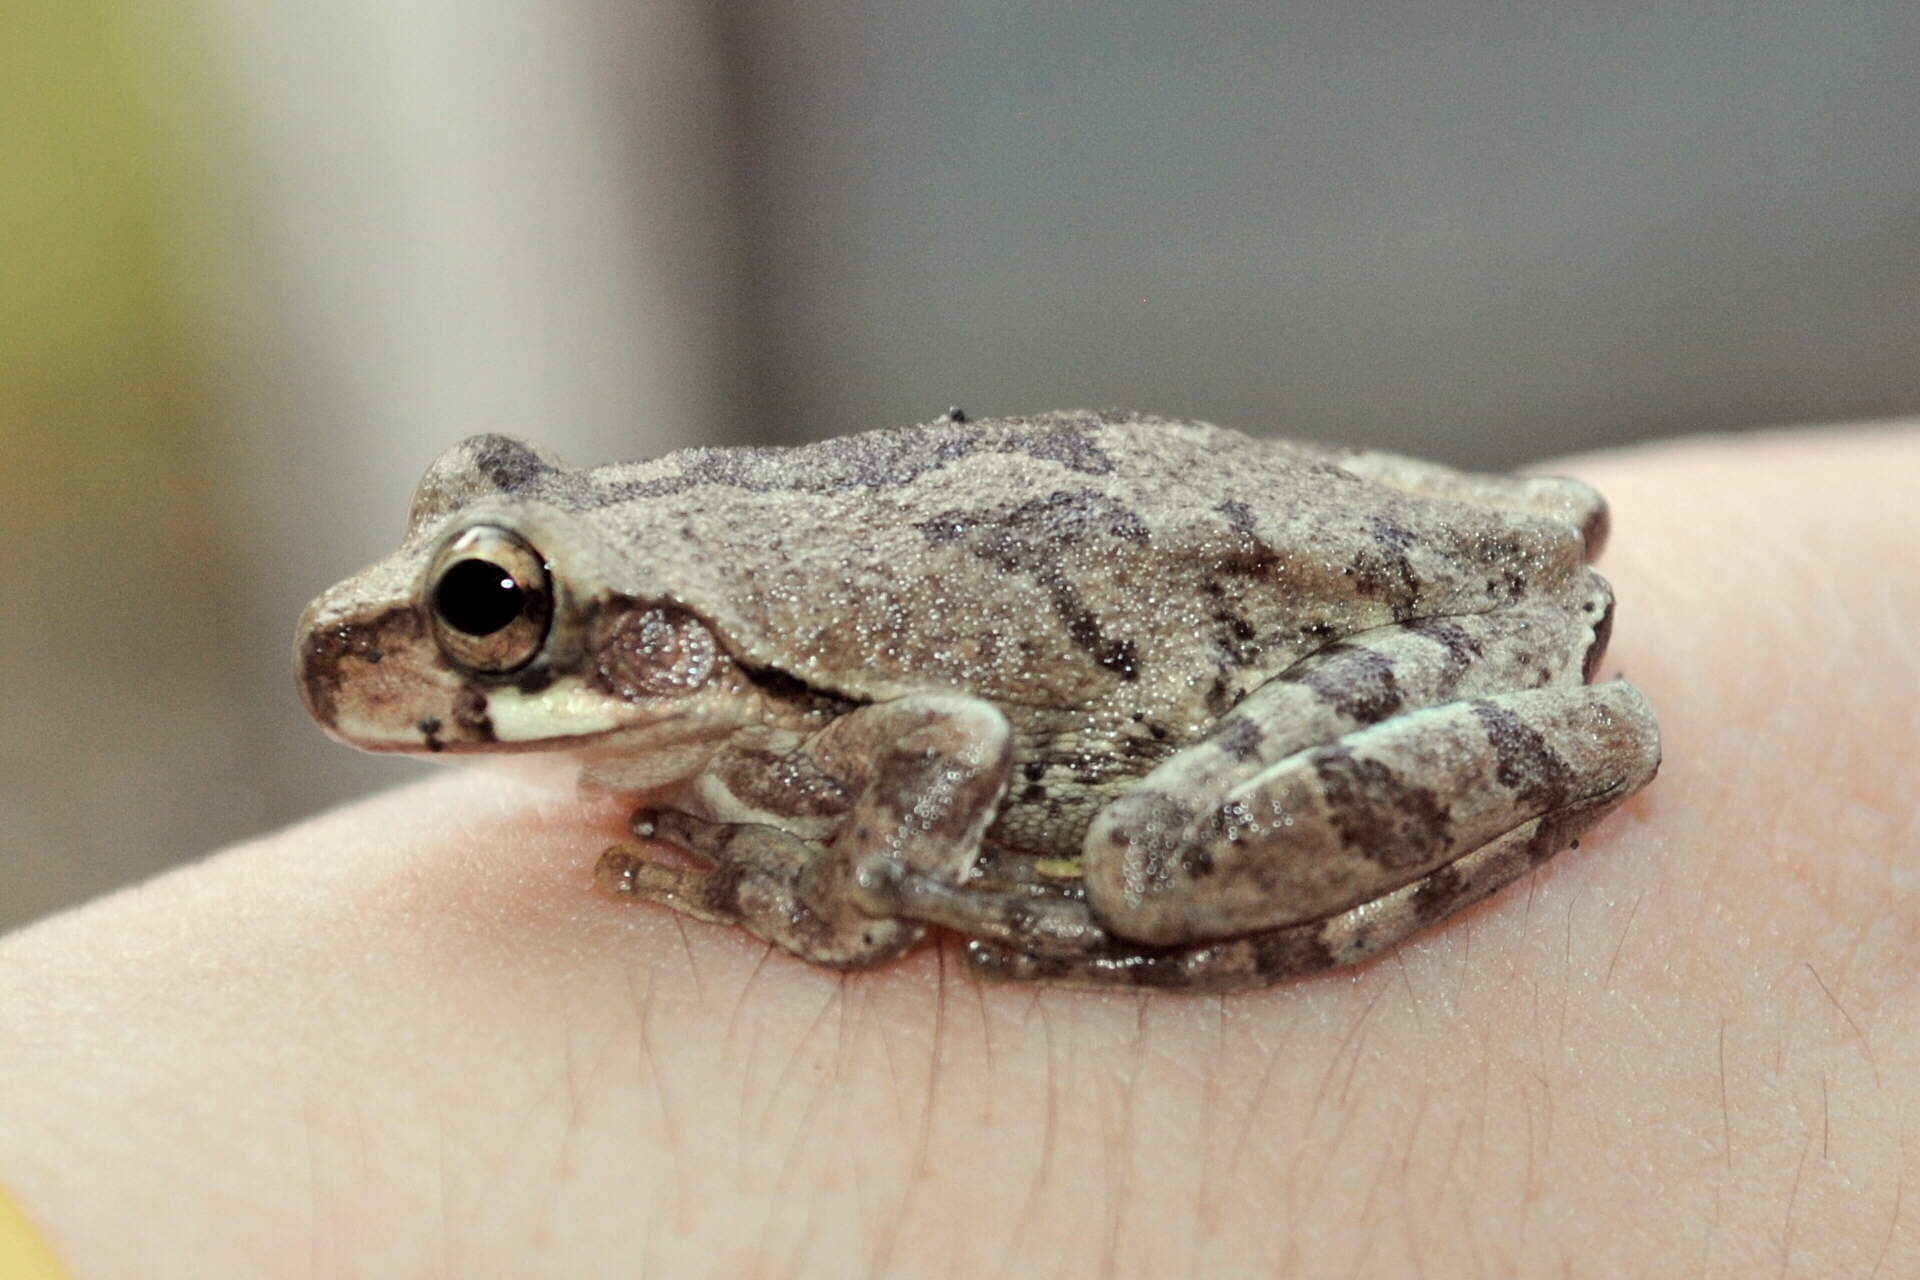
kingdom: Animalia
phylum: Chordata
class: Amphibia
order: Anura
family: Hylidae
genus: Smilisca
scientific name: Smilisca baudinii
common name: Mexican smilisca
